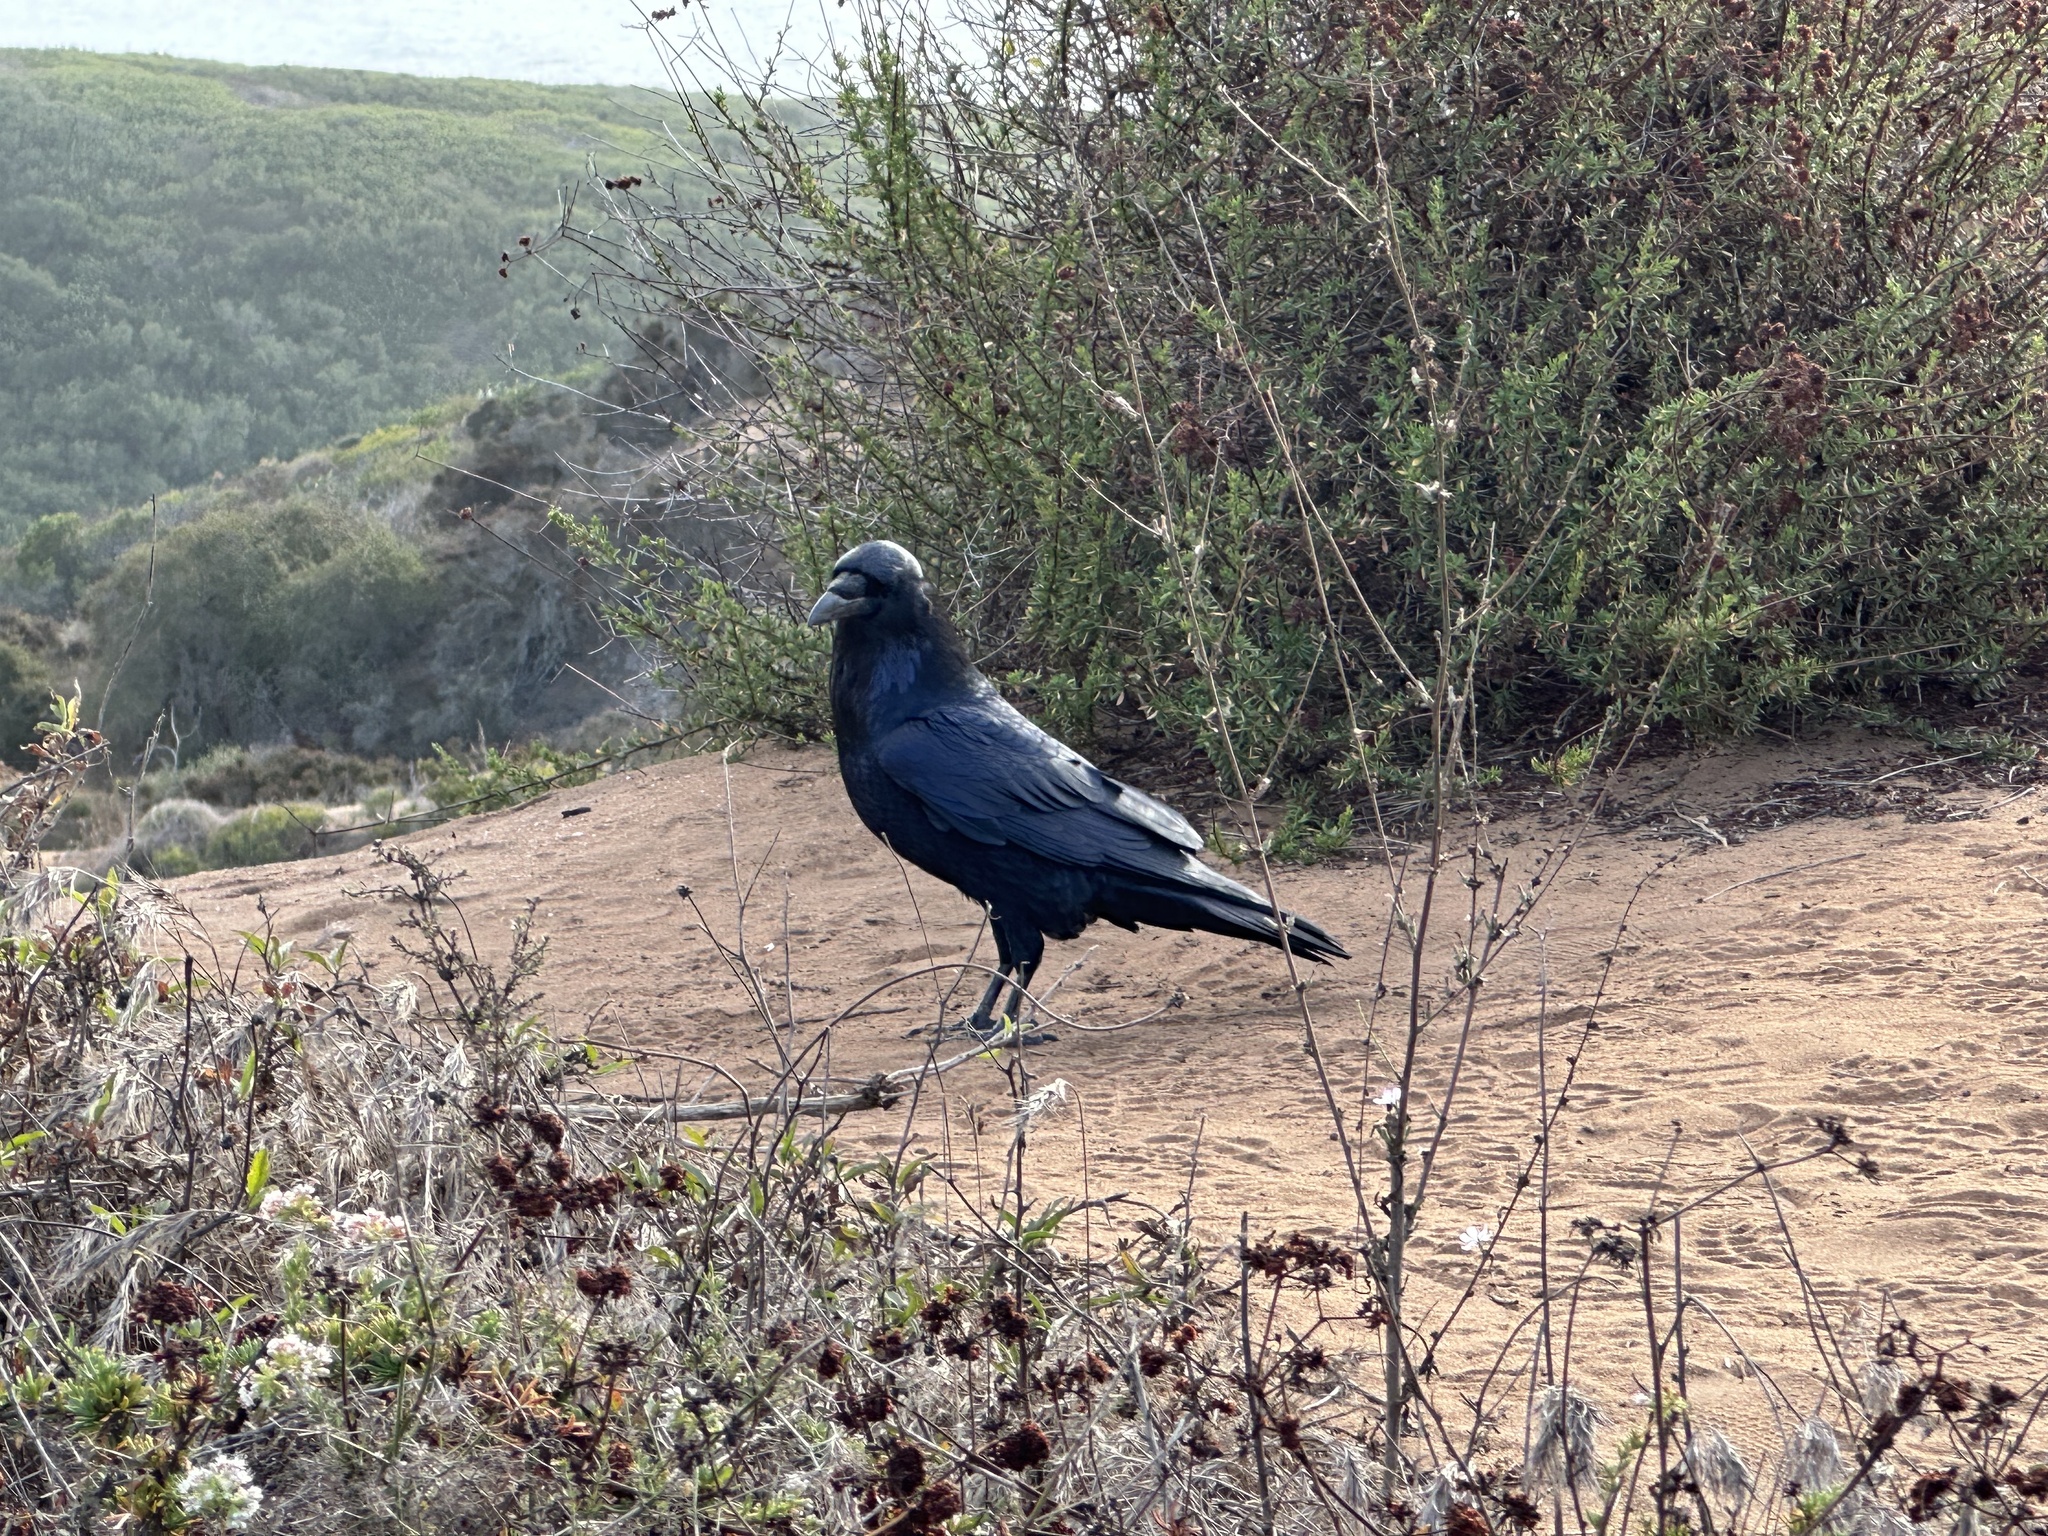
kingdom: Animalia
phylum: Chordata
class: Aves
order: Passeriformes
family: Corvidae
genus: Corvus
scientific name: Corvus corax
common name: Common raven
